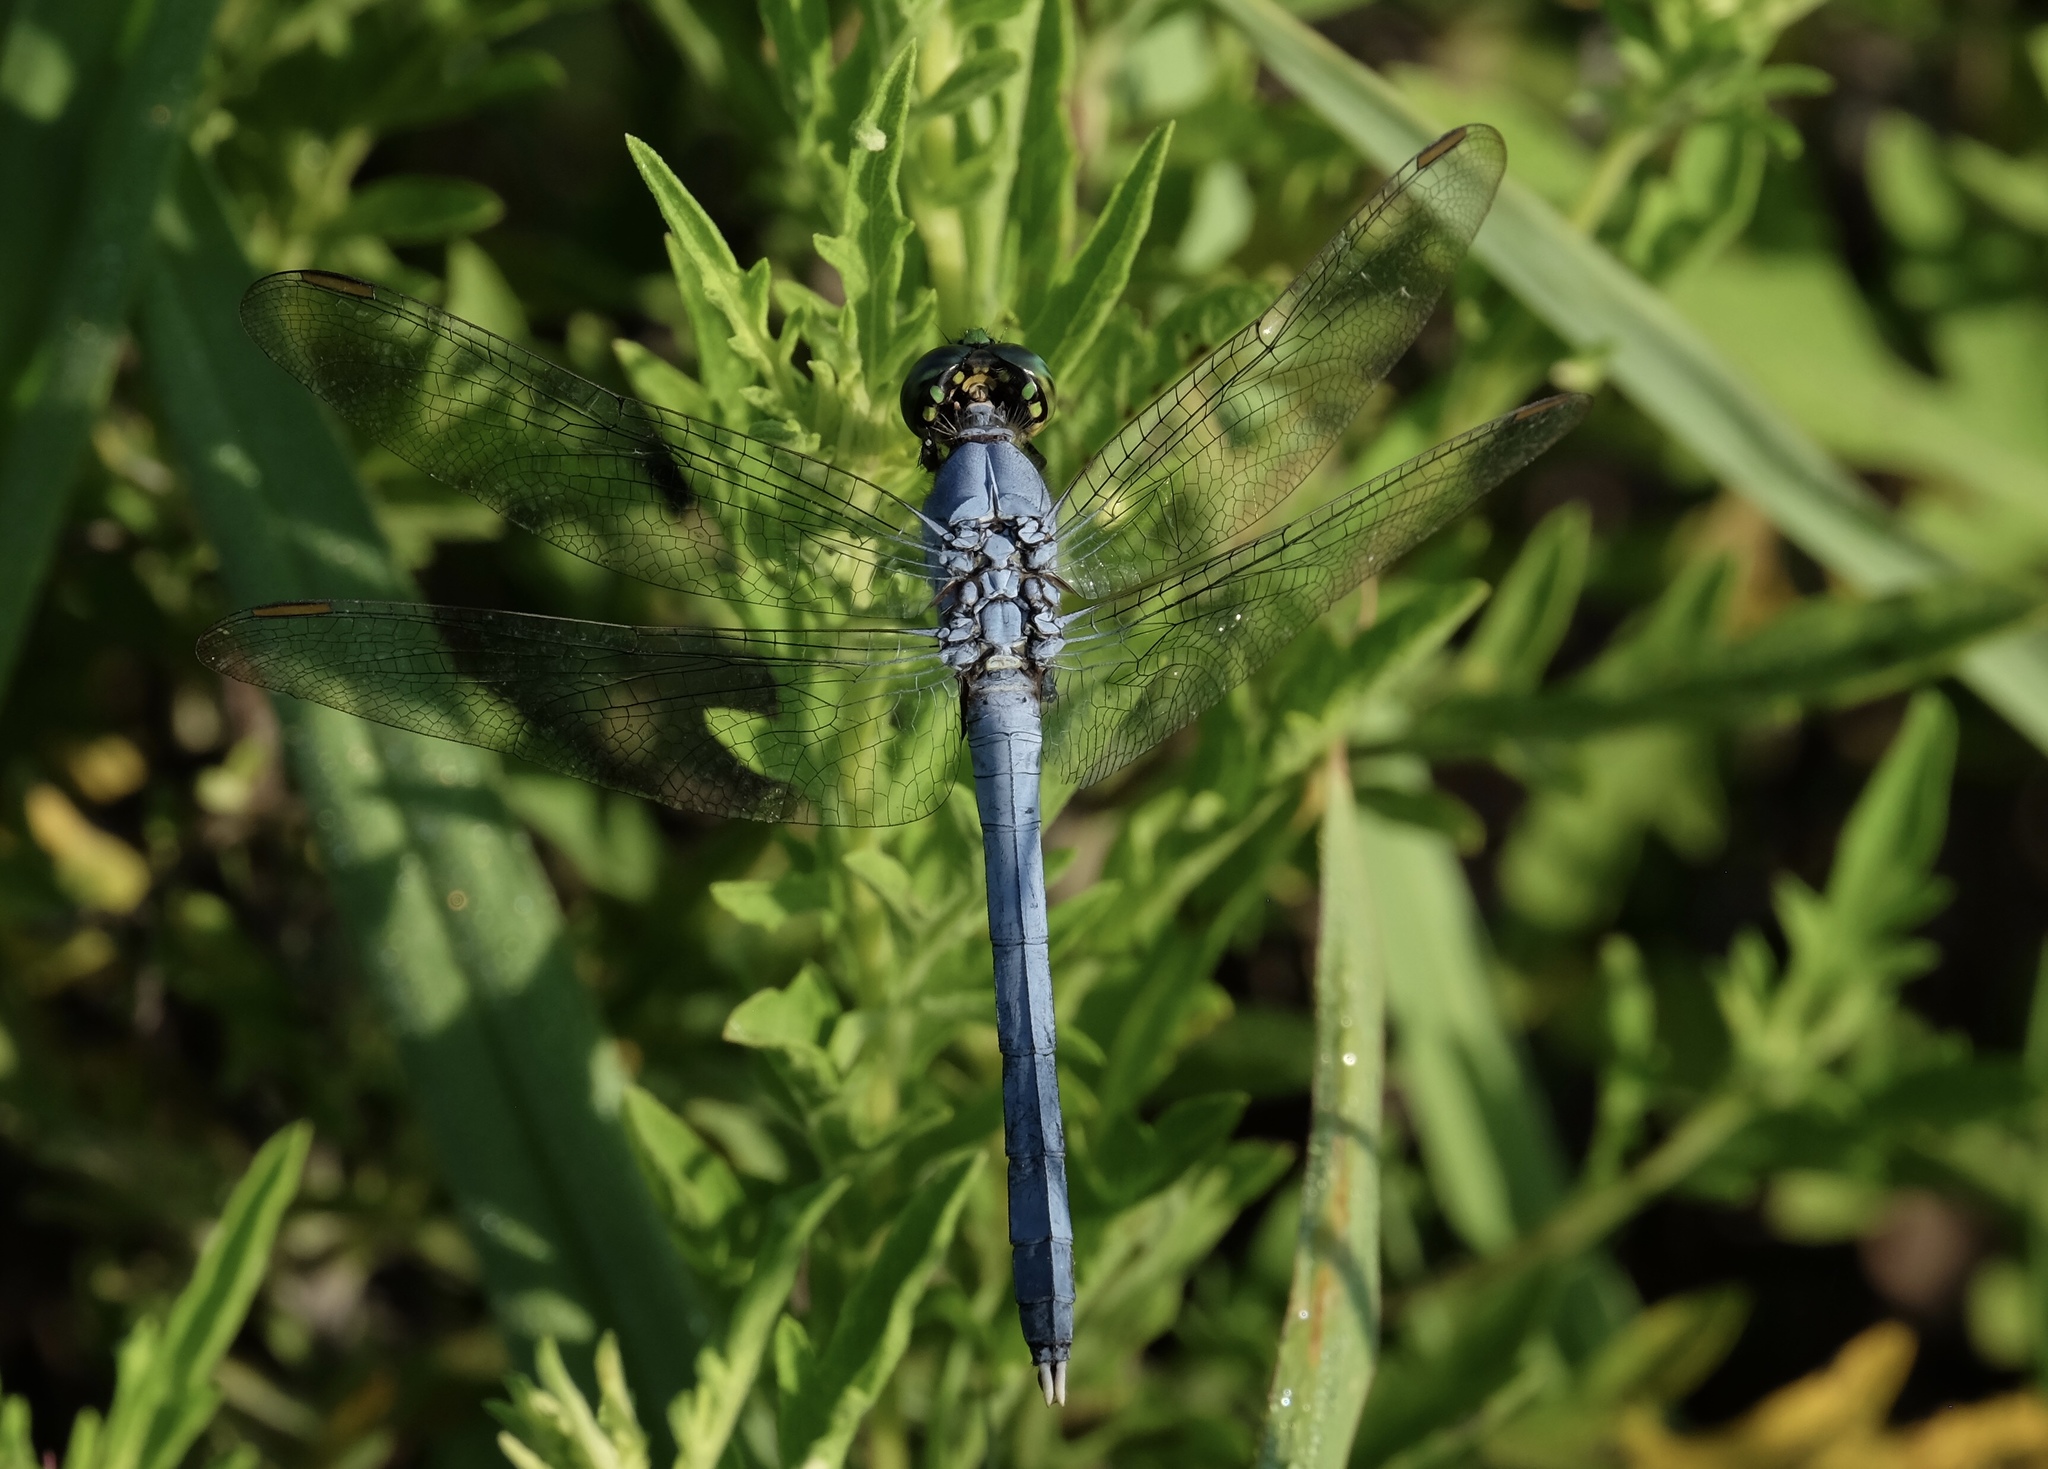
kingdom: Animalia
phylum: Arthropoda
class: Insecta
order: Odonata
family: Libellulidae
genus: Erythemis
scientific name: Erythemis simplicicollis
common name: Eastern pondhawk
